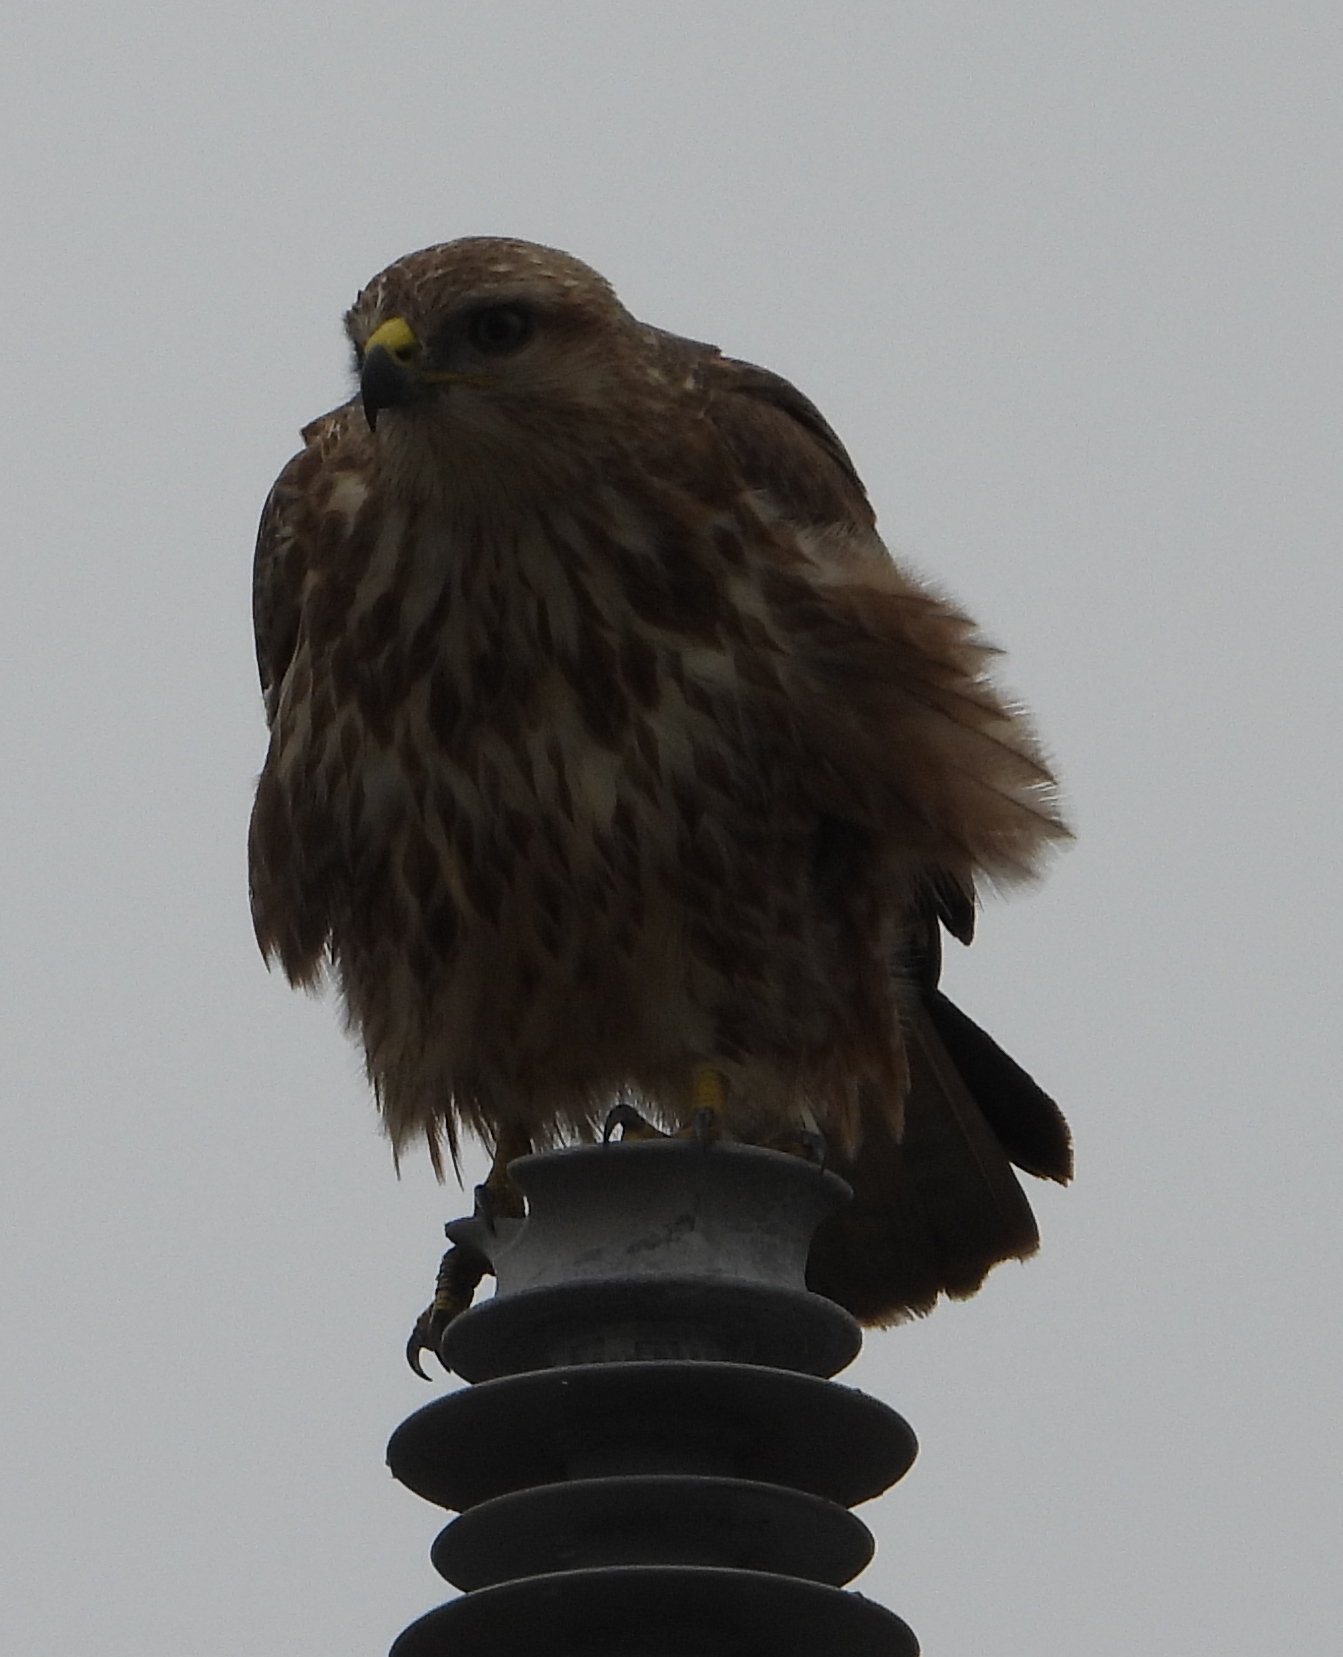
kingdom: Animalia
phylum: Chordata
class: Aves
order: Accipitriformes
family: Accipitridae
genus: Buteo
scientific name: Buteo buteo
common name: Common buzzard
